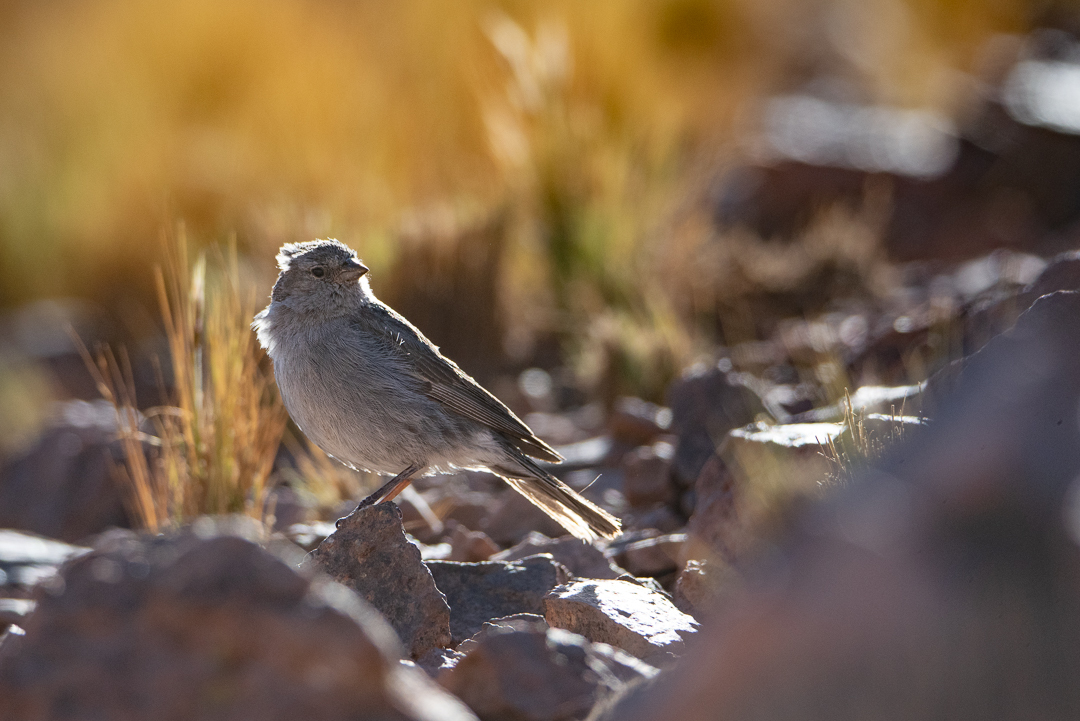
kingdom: Animalia
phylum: Chordata
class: Aves
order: Passeriformes
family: Thraupidae
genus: Geospizopsis
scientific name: Geospizopsis unicolor
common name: Plumbeous sierra-finch
